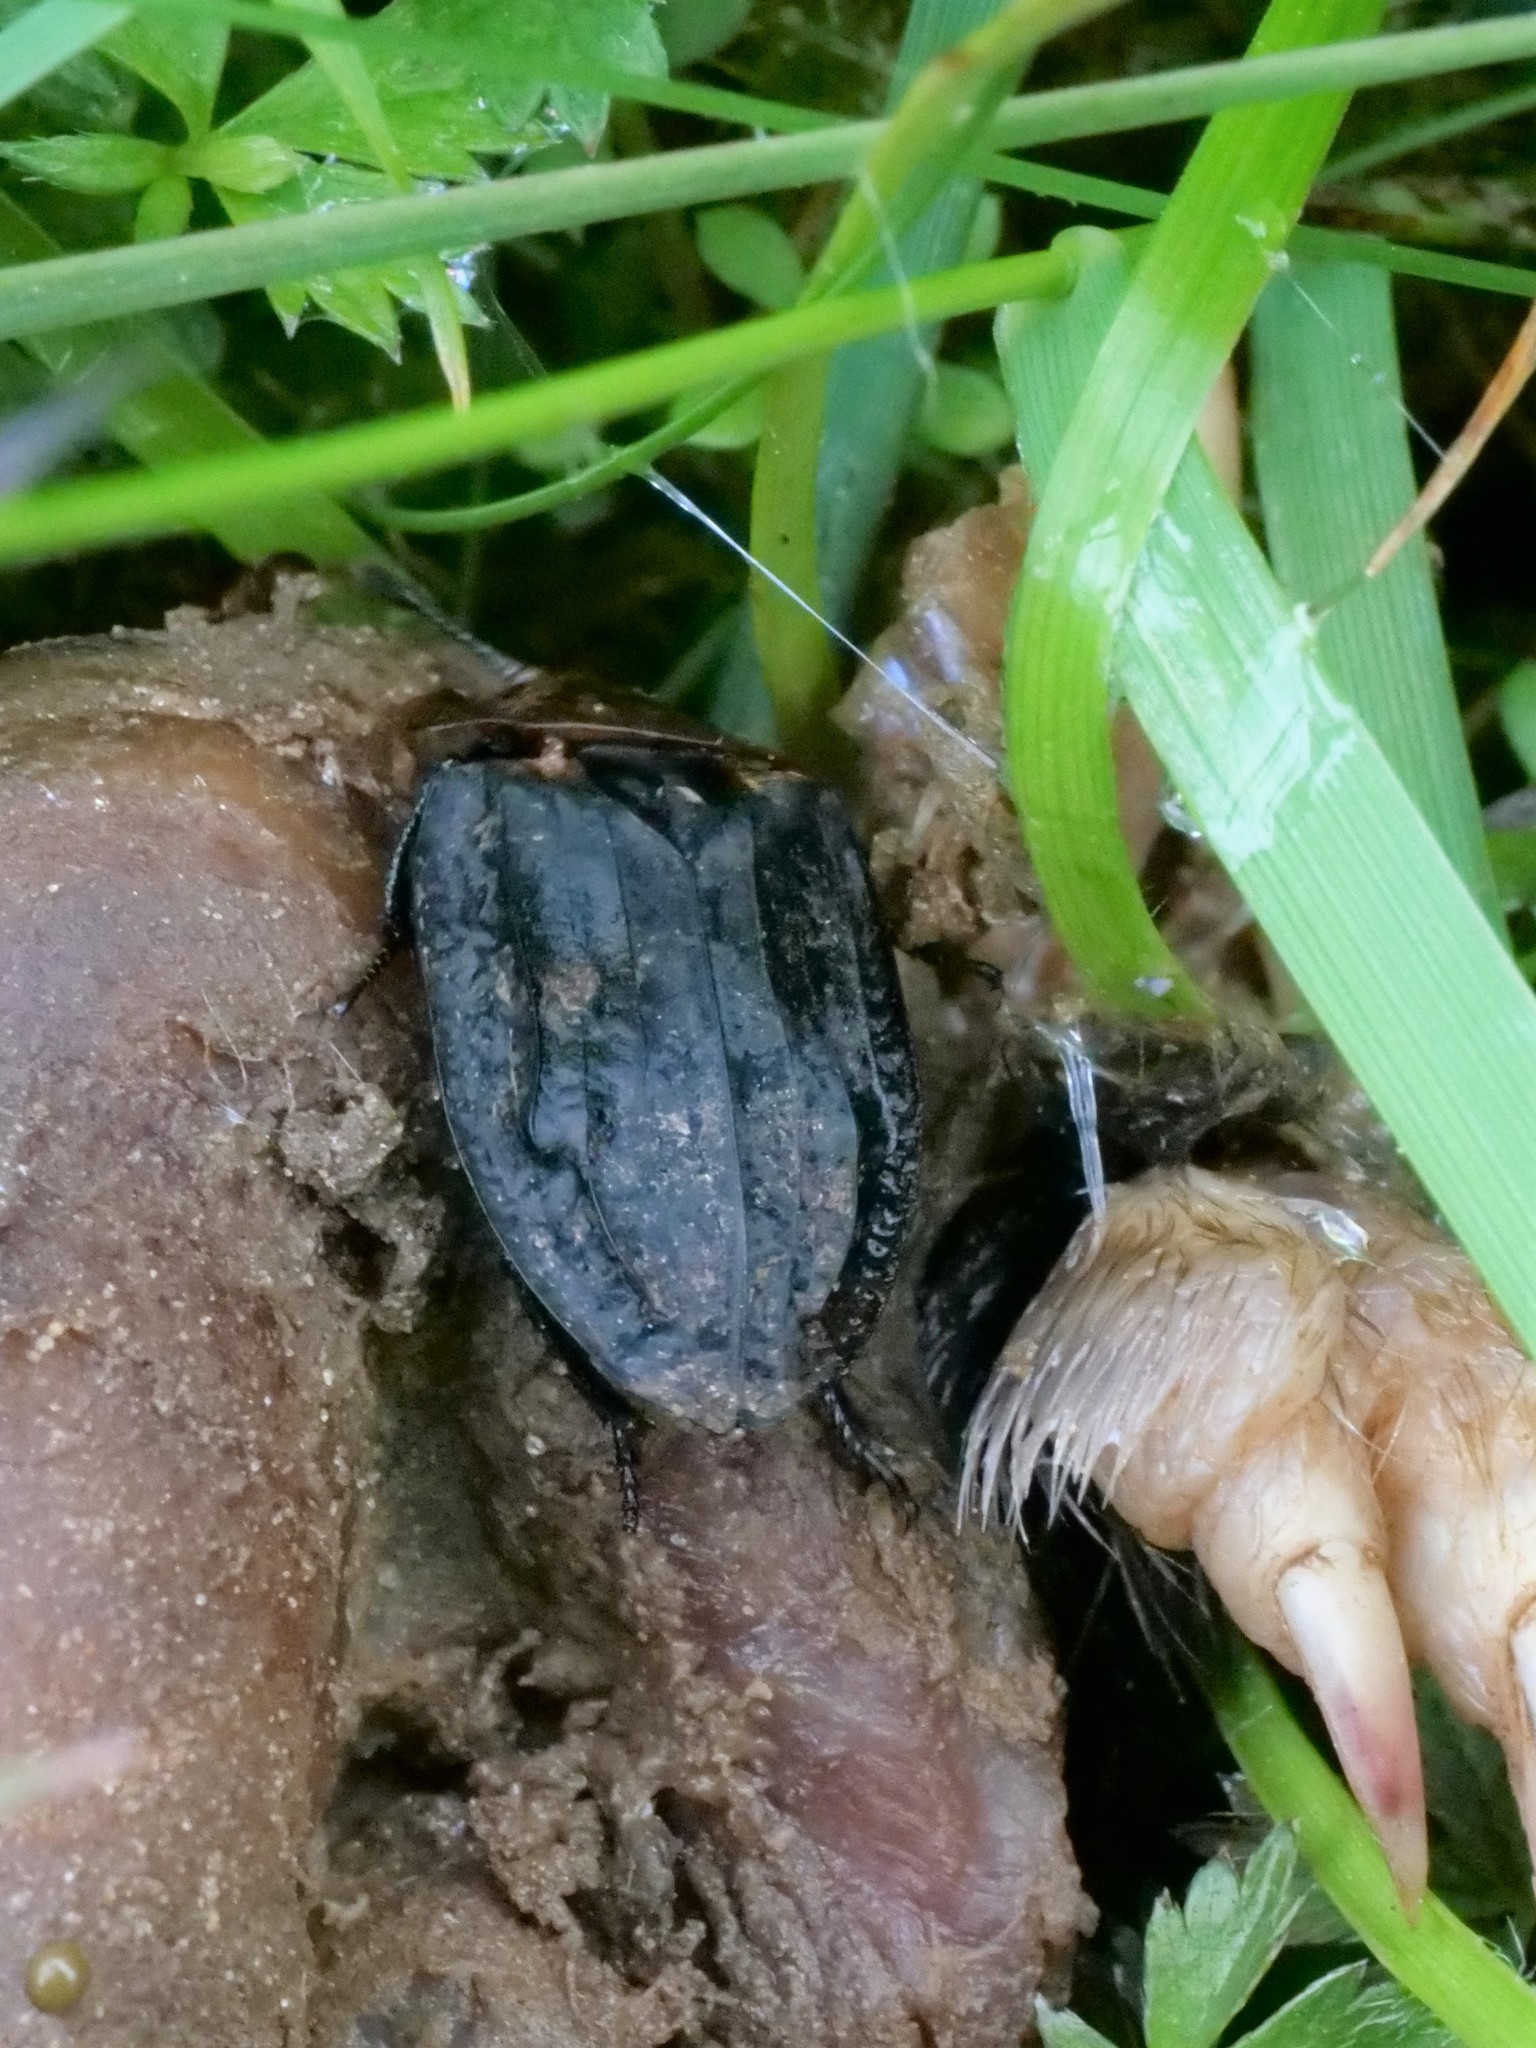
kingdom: Animalia
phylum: Arthropoda
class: Insecta
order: Coleoptera
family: Staphylinidae
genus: Oiceoptoma
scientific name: Oiceoptoma thoracicum
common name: Red-breasted carrion beetle
